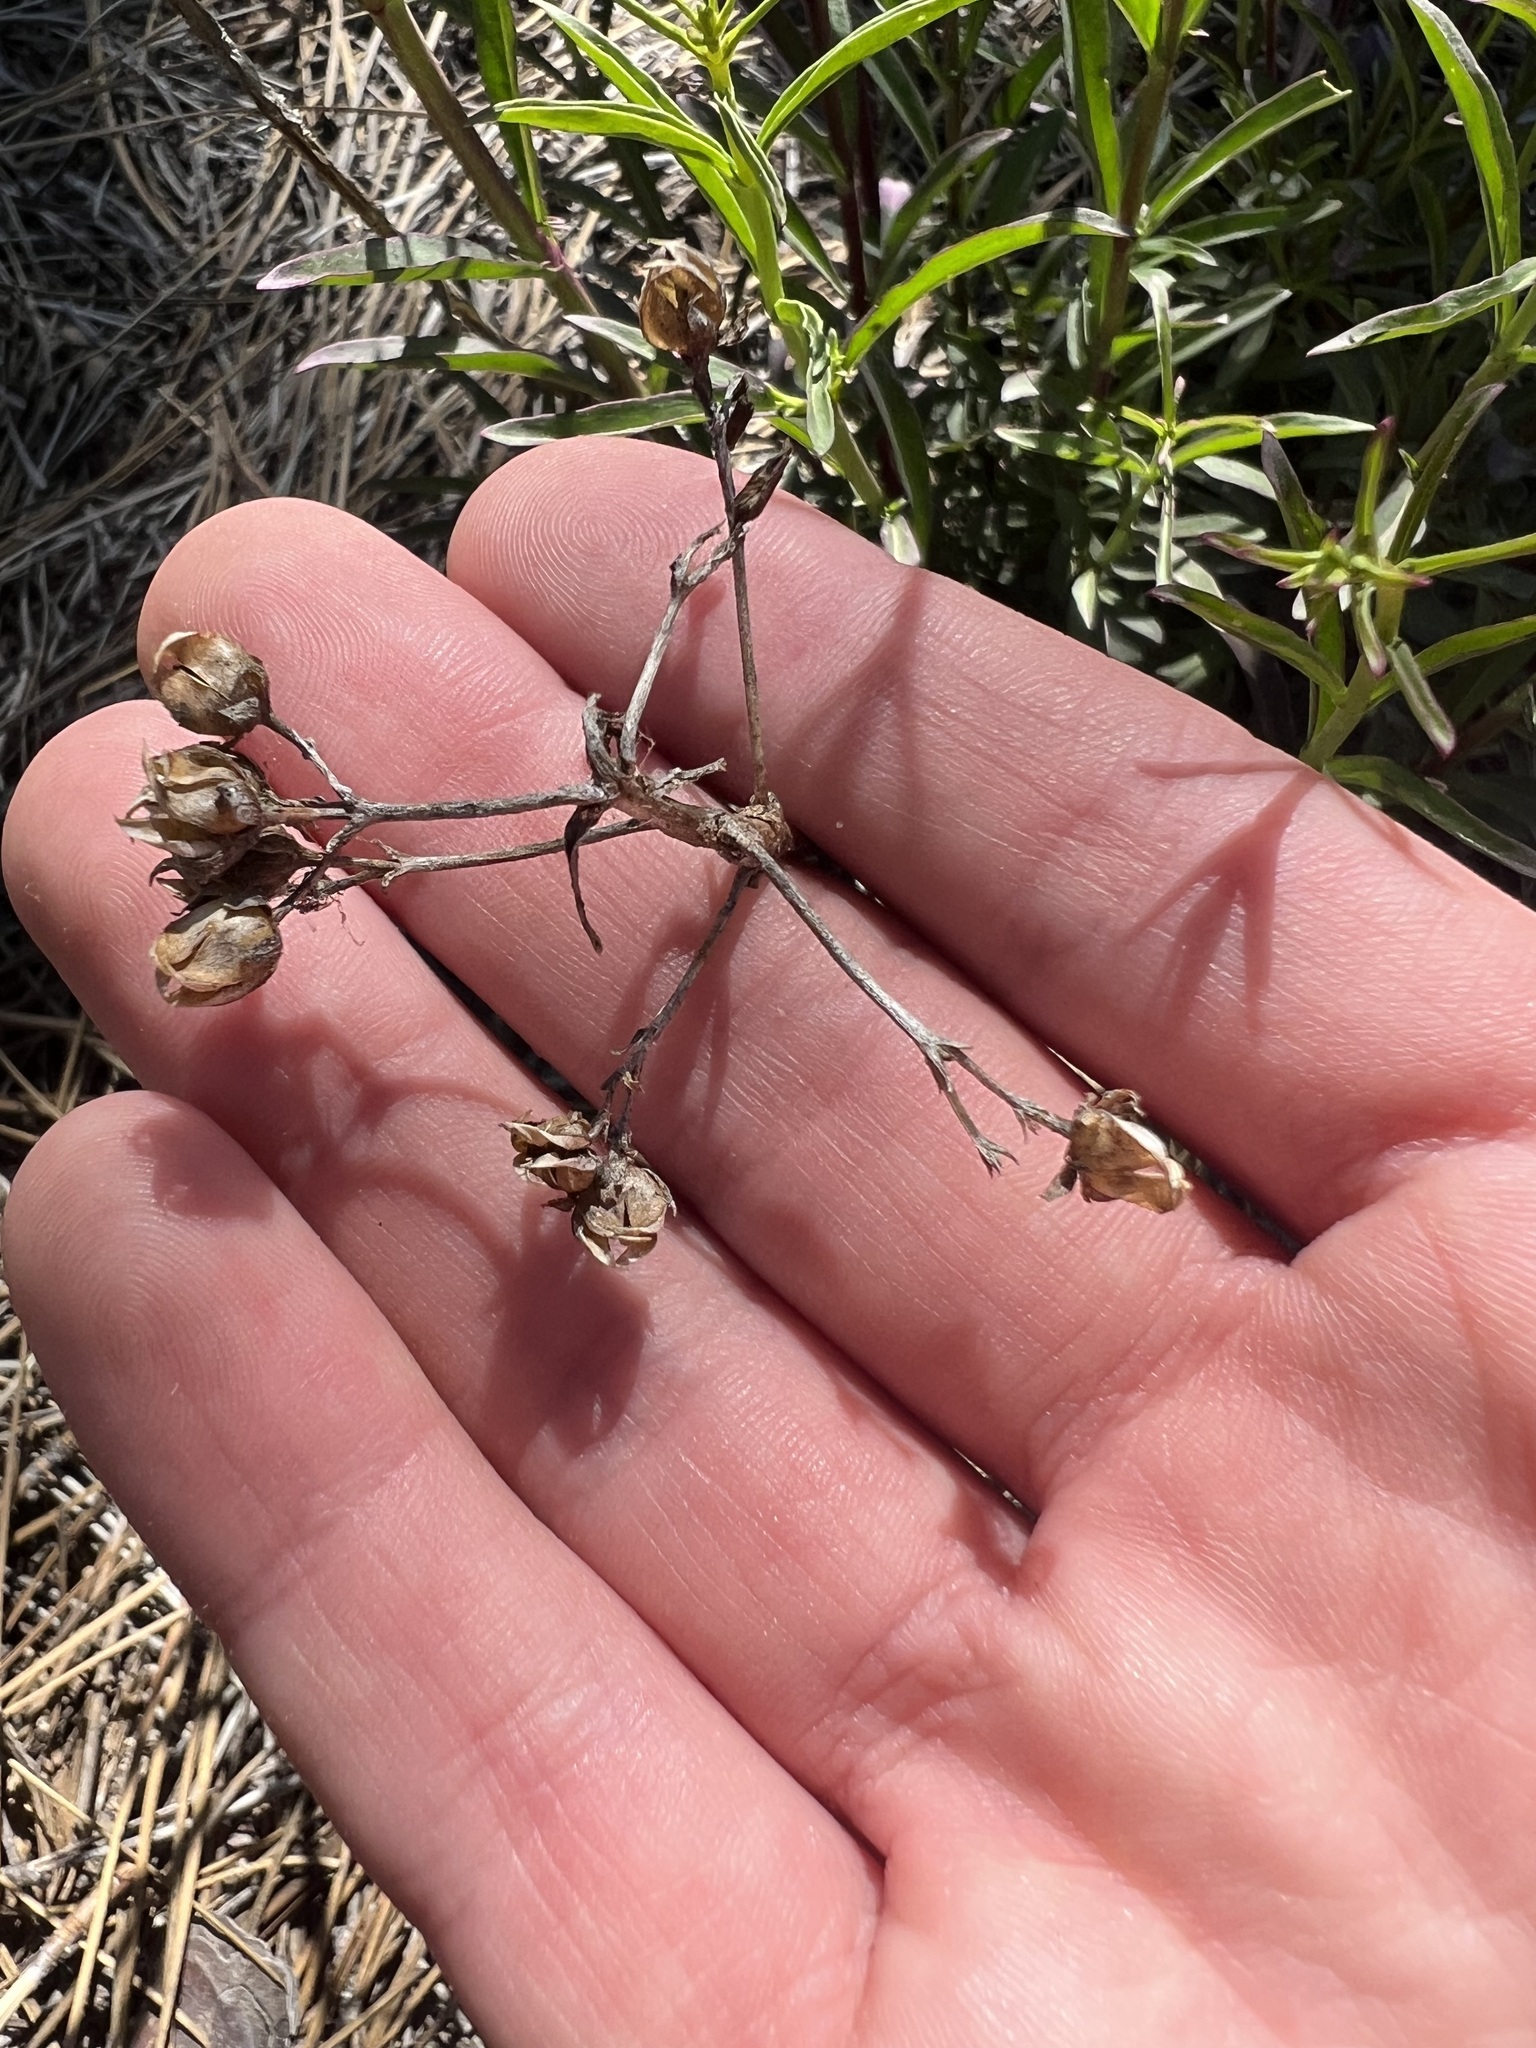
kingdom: Plantae
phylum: Tracheophyta
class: Magnoliopsida
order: Lamiales
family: Plantaginaceae
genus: Penstemon
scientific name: Penstemon rostriflorus
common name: Bridges's penstemon
